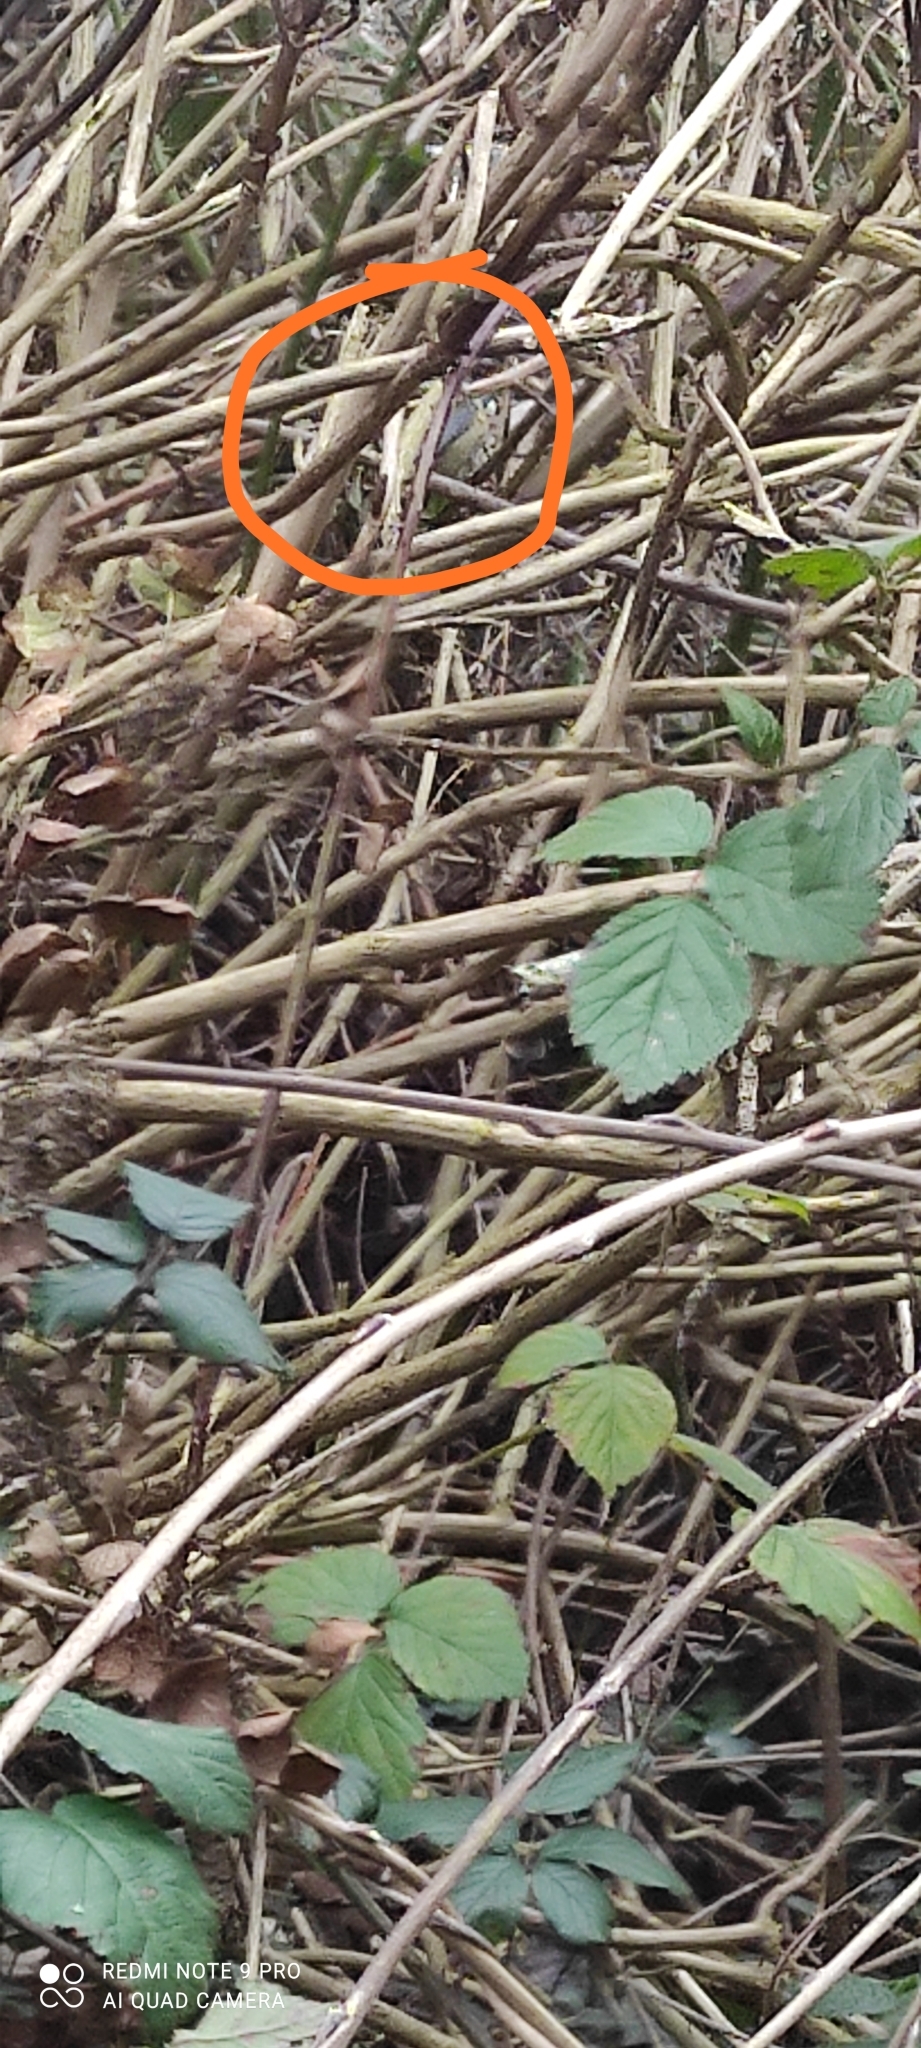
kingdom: Animalia
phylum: Chordata
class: Aves
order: Passeriformes
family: Paridae
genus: Cyanistes
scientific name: Cyanistes caeruleus
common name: Eurasian blue tit
